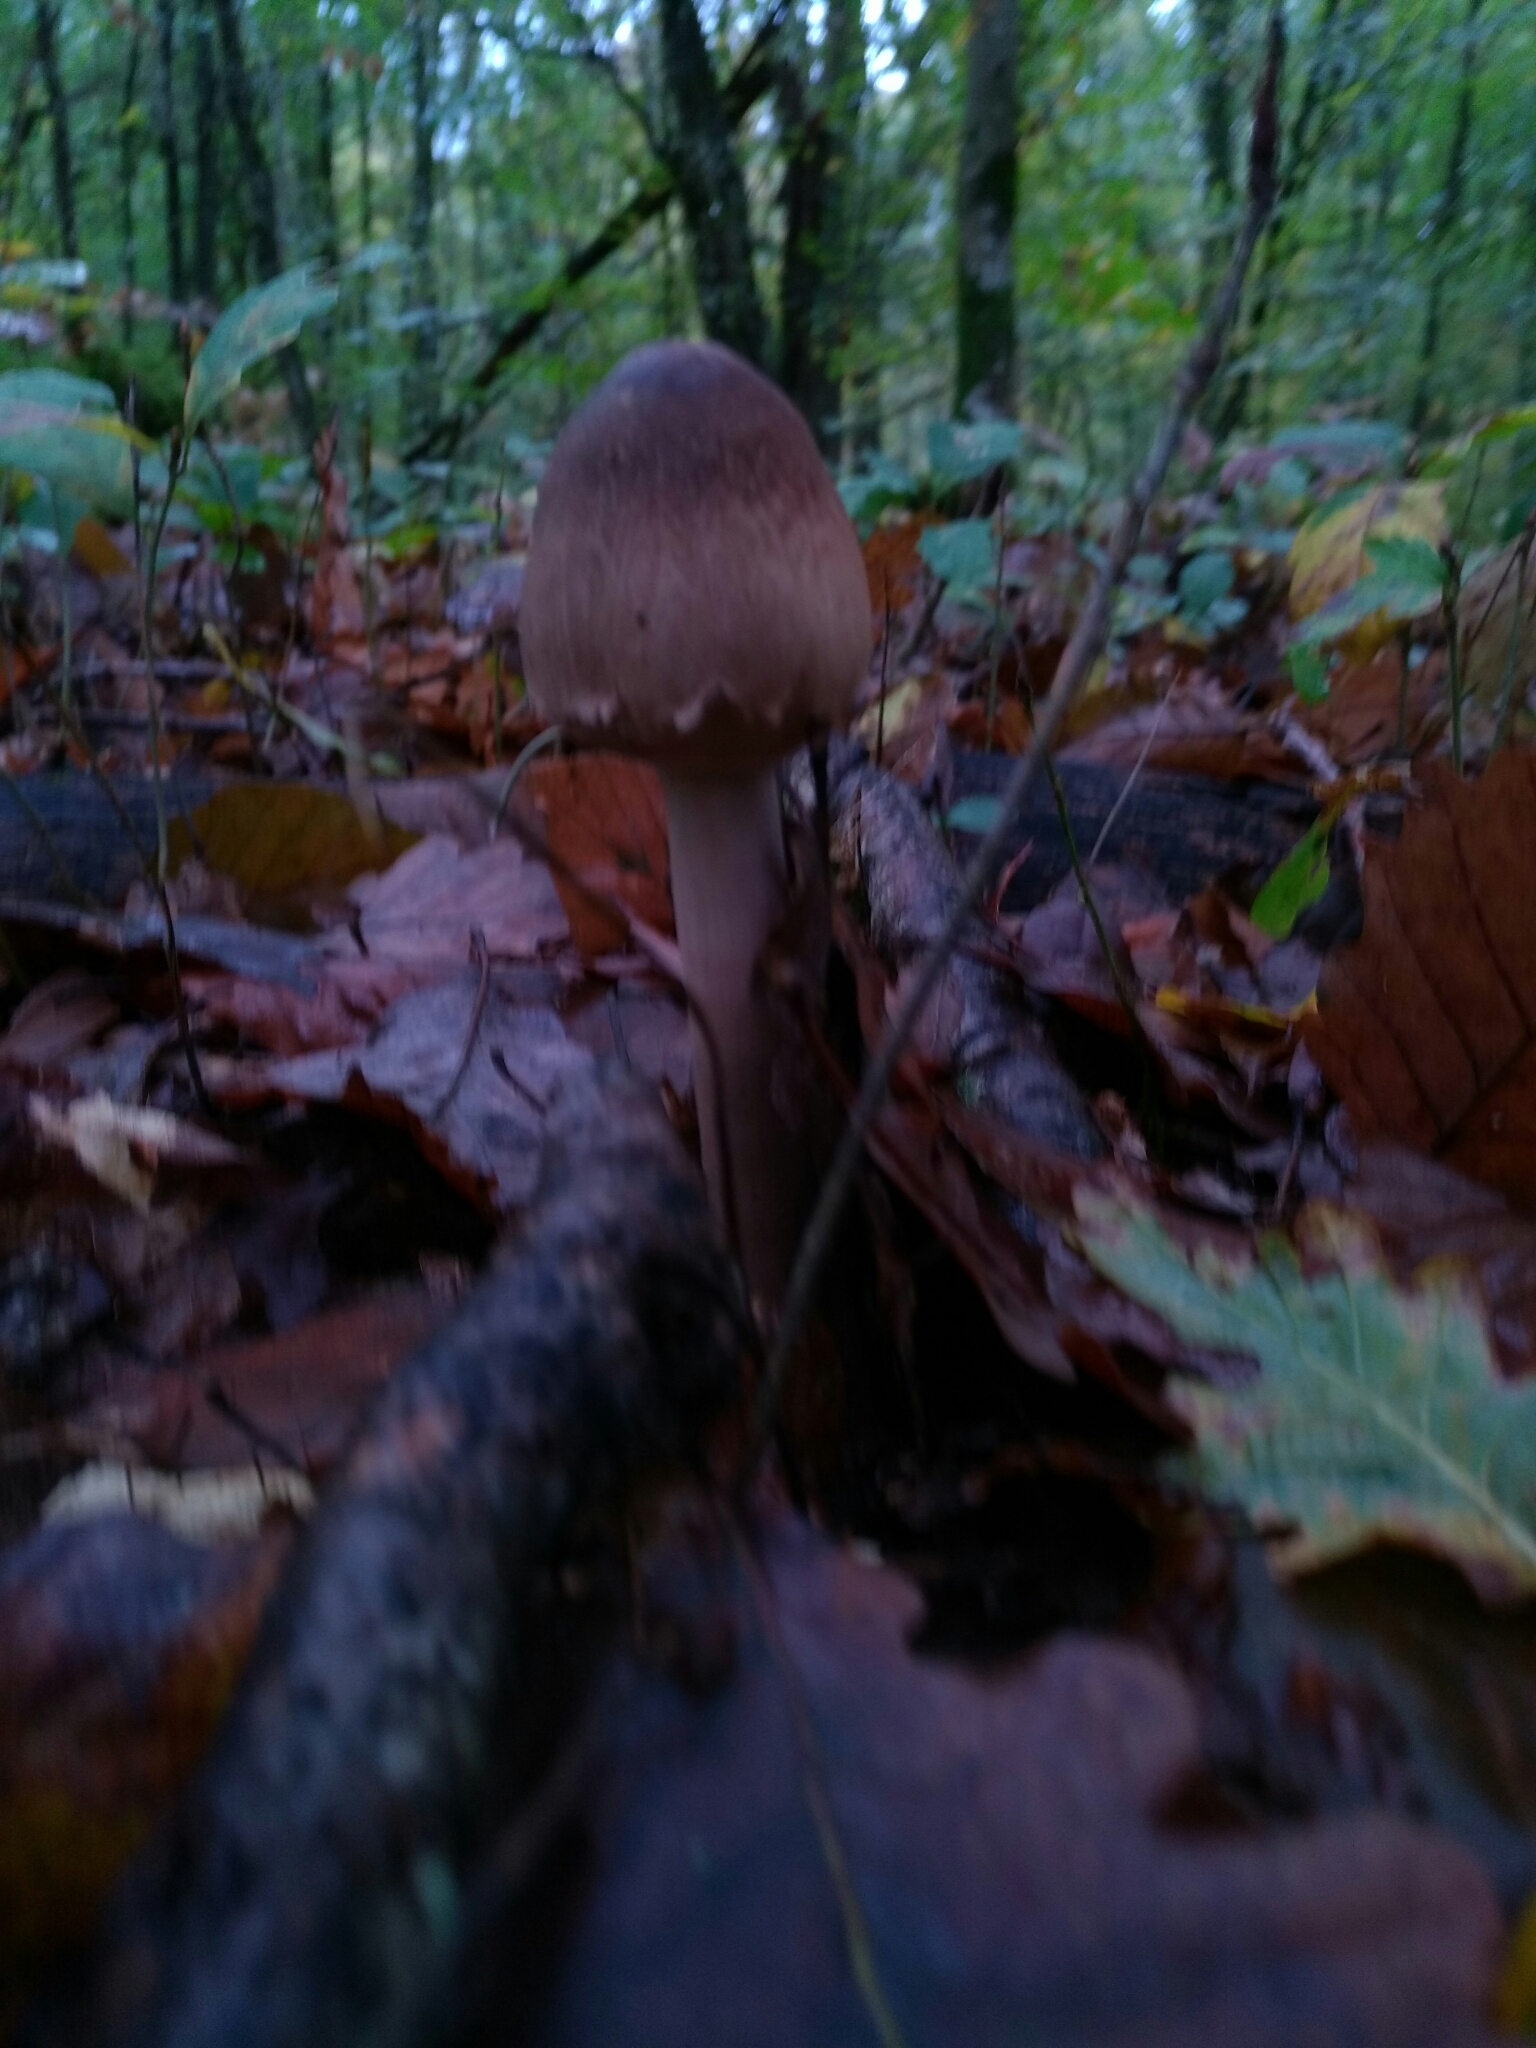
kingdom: Fungi
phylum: Basidiomycota
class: Agaricomycetes
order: Agaricales
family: Agaricaceae
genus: Macrolepiota
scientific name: Macrolepiota procera
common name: Parasol
